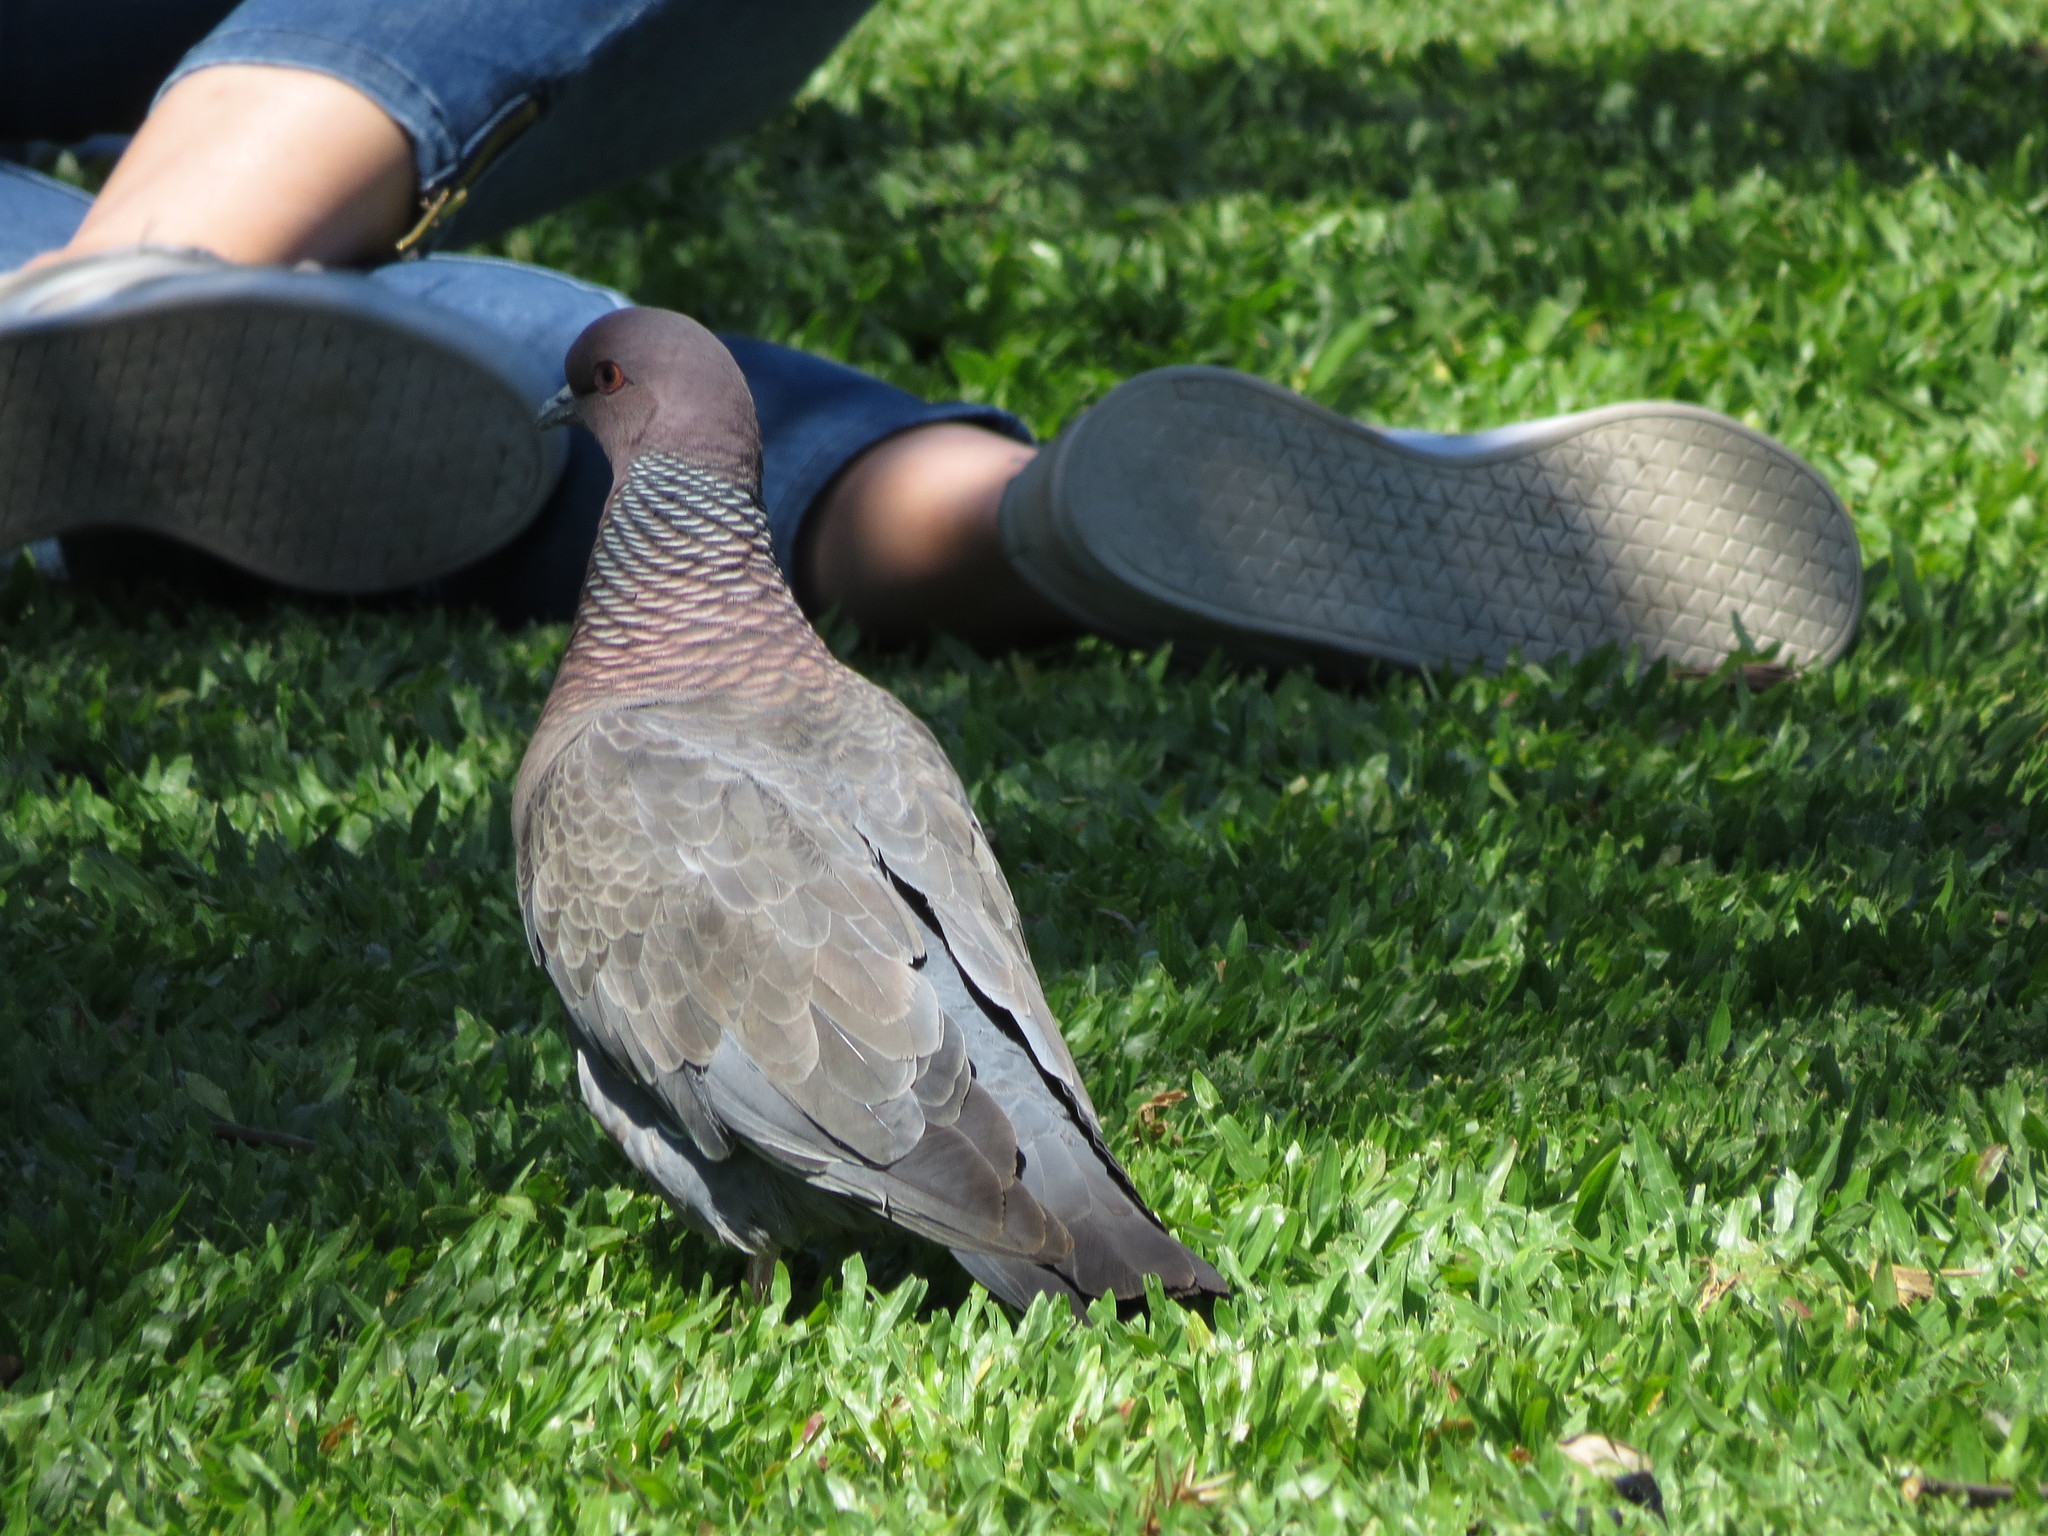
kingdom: Animalia
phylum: Chordata
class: Aves
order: Columbiformes
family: Columbidae
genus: Patagioenas
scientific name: Patagioenas picazuro
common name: Picazuro pigeon
